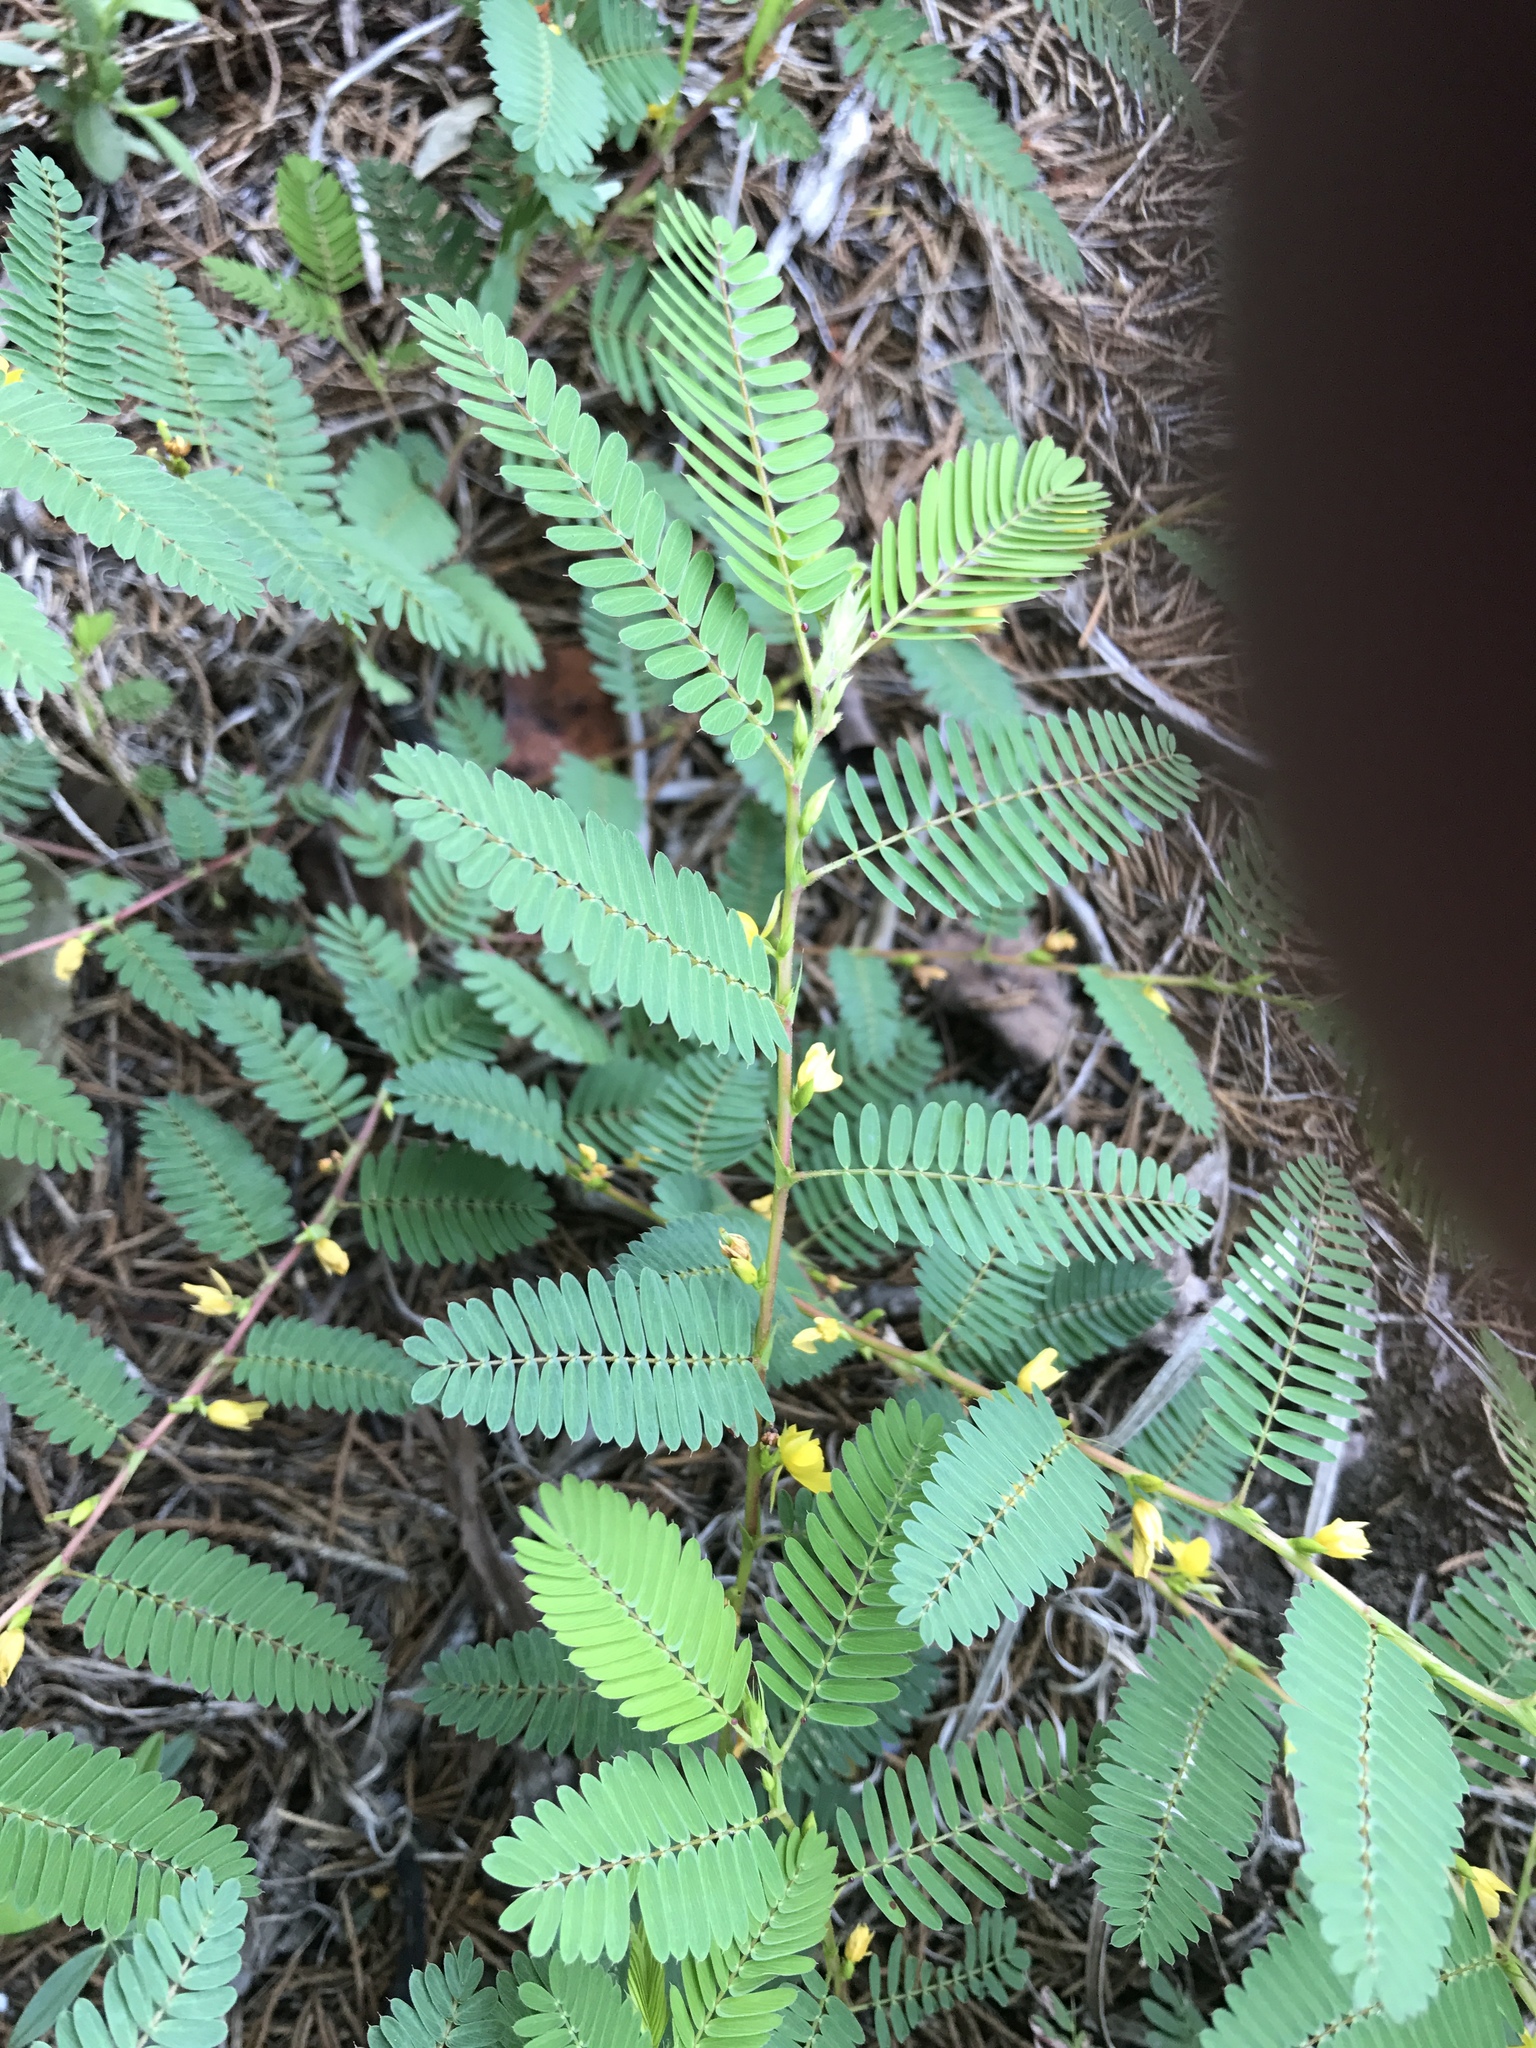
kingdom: Plantae
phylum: Tracheophyta
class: Magnoliopsida
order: Fabales
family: Fabaceae
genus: Chamaecrista
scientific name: Chamaecrista nictitans
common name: Sensitive cassia
